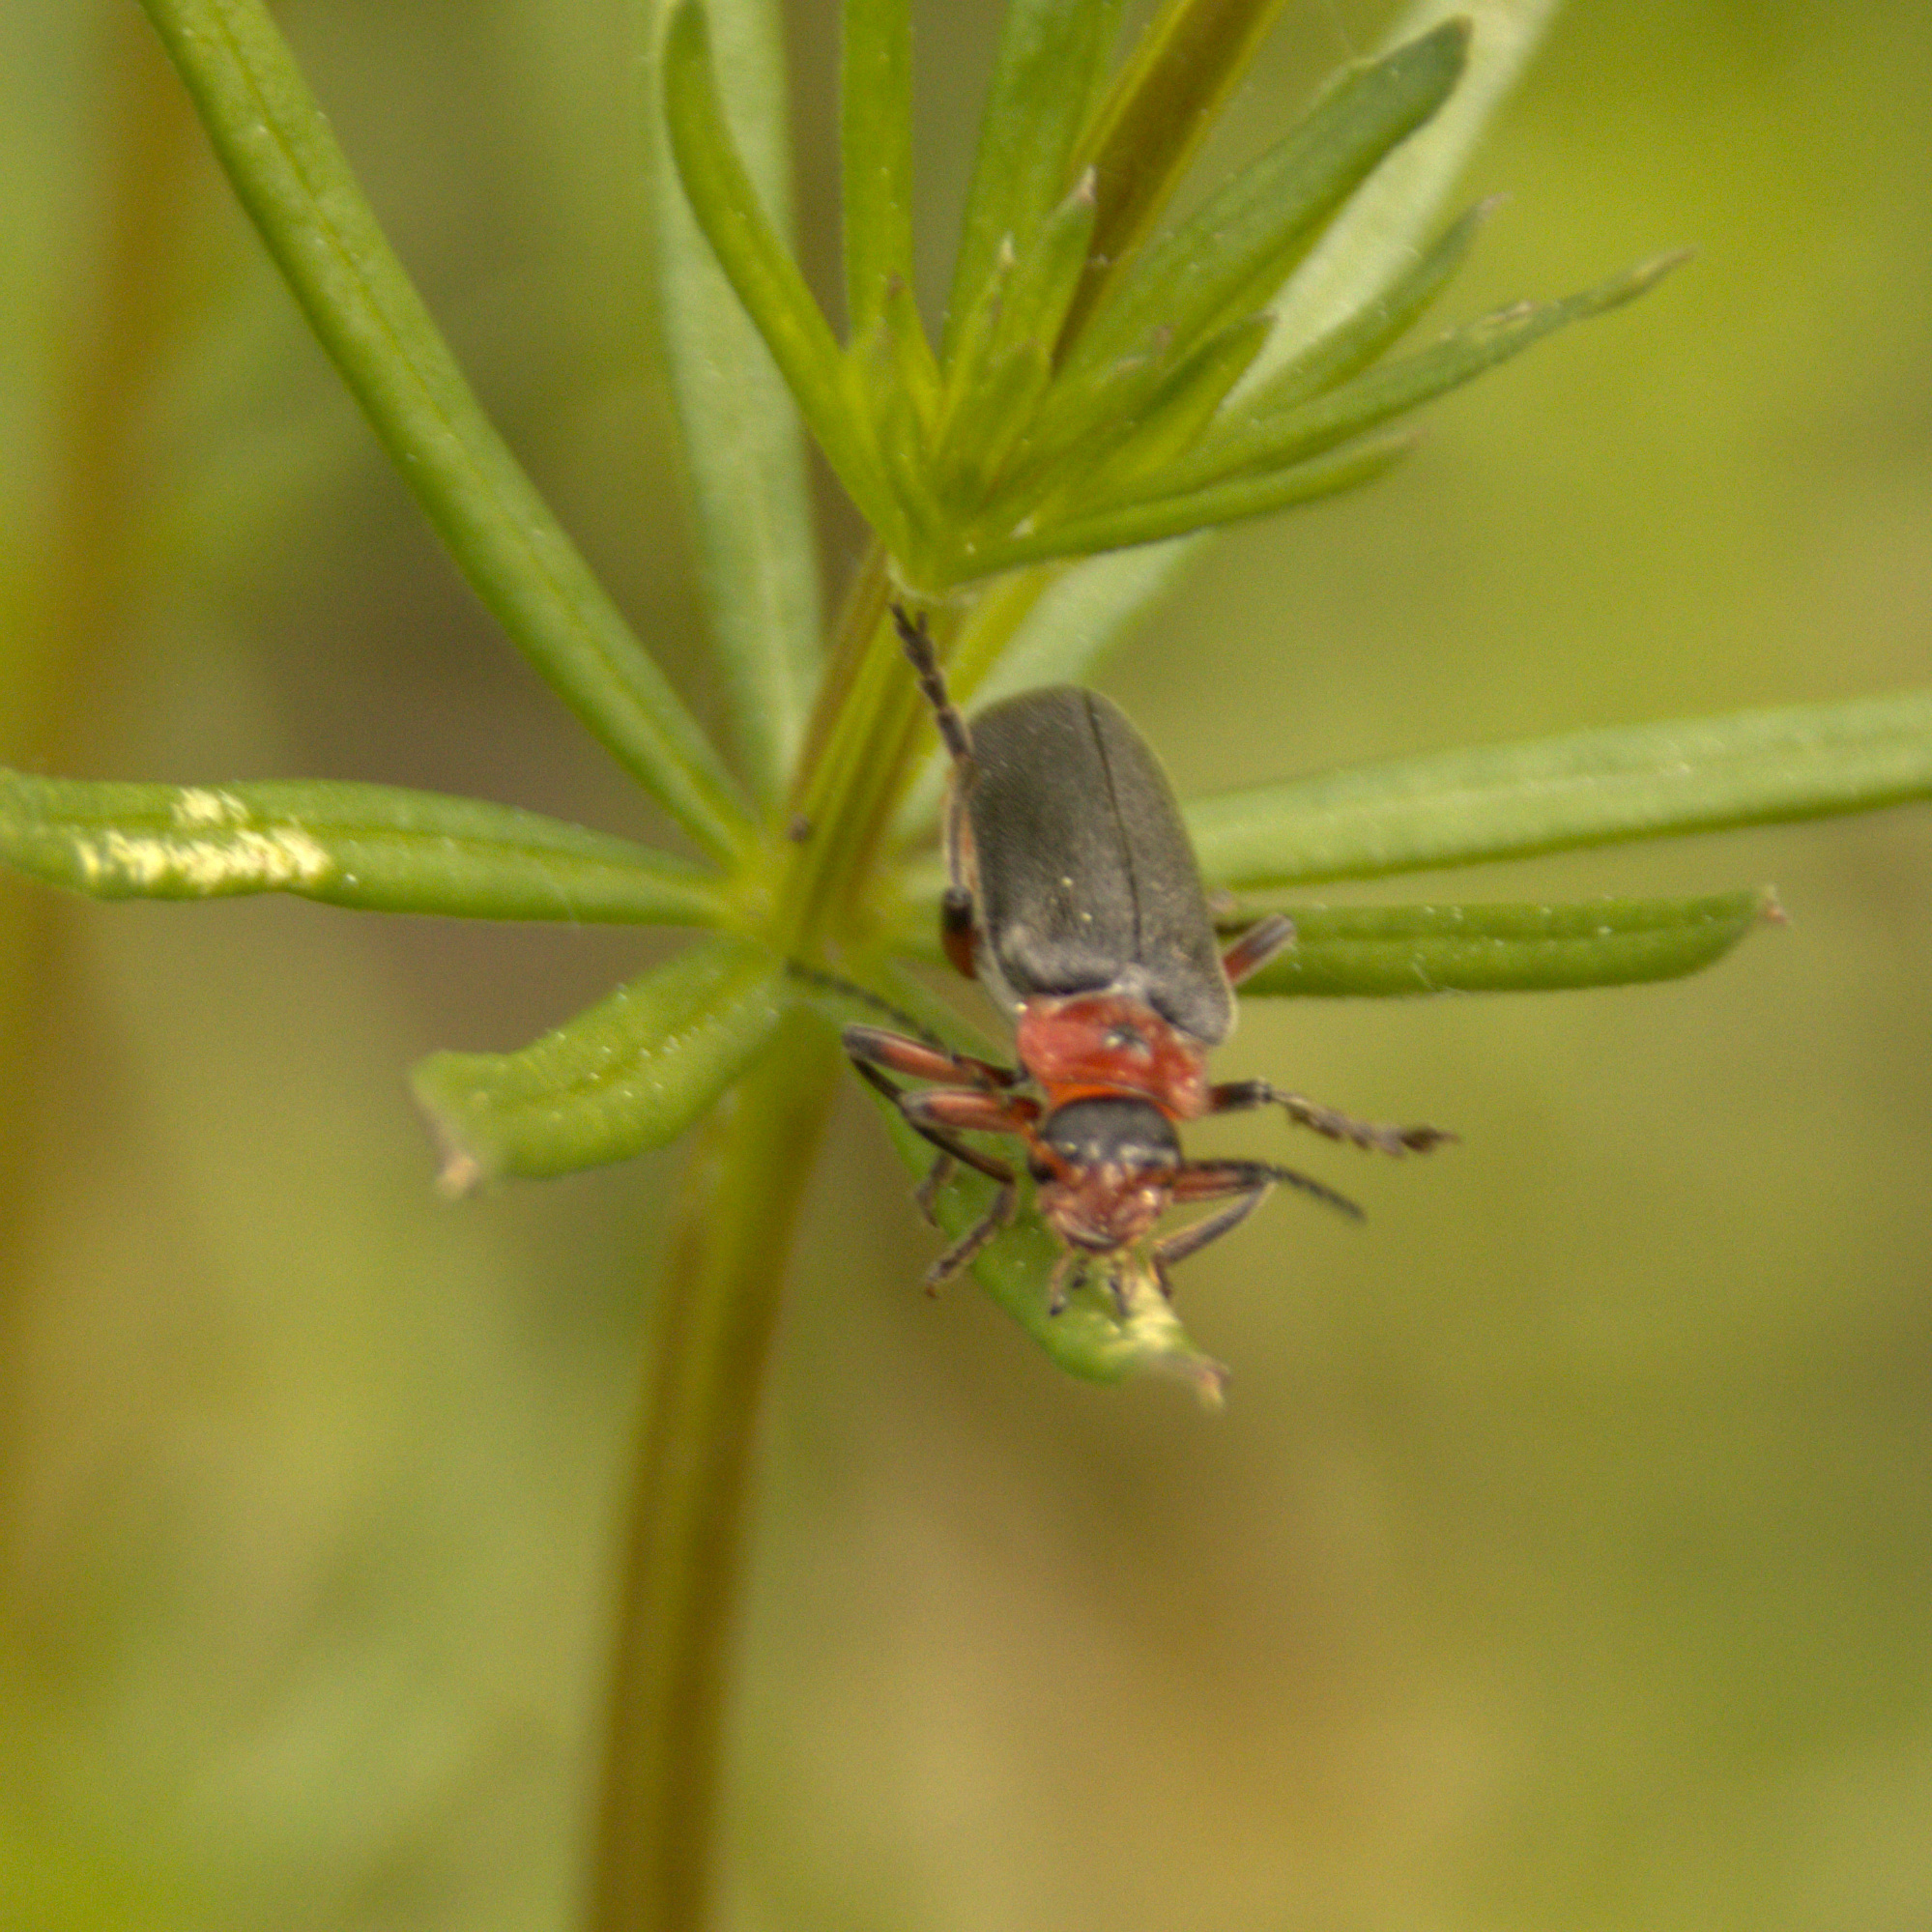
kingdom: Animalia
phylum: Arthropoda
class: Insecta
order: Coleoptera
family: Cantharidae
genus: Cantharis
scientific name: Cantharis rustica
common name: Soldier beetle
